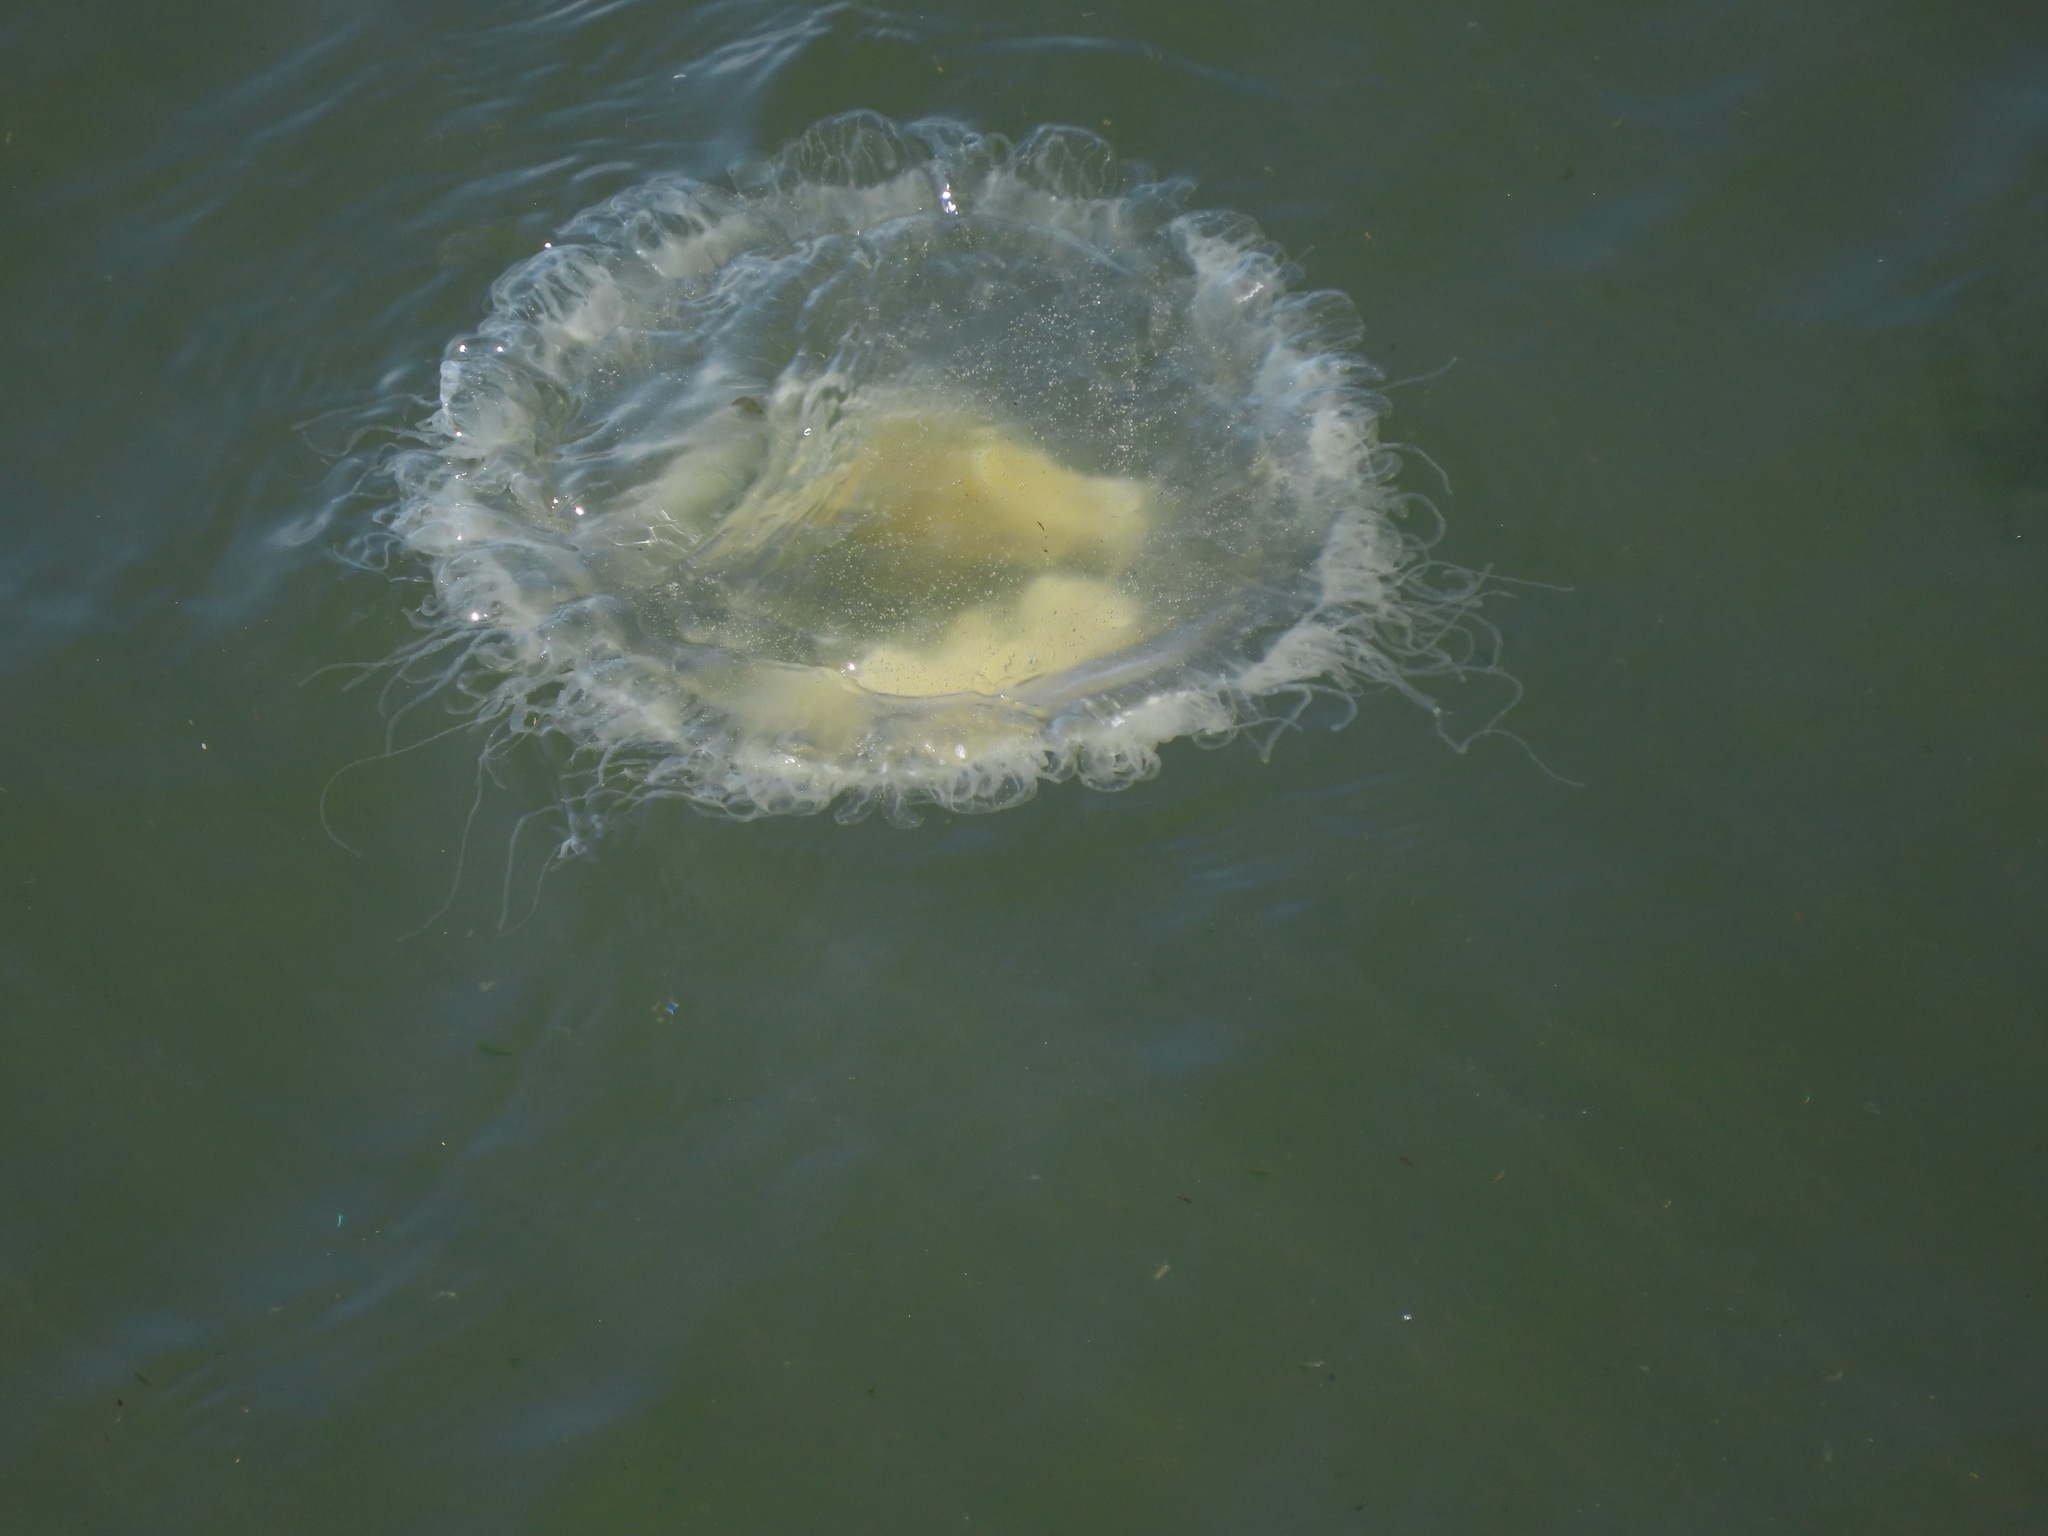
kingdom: Animalia
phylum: Cnidaria
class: Scyphozoa
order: Semaeostomeae
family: Phacellophoridae
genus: Phacellophora
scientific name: Phacellophora camtschatica
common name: Fried-egg jellyfish
